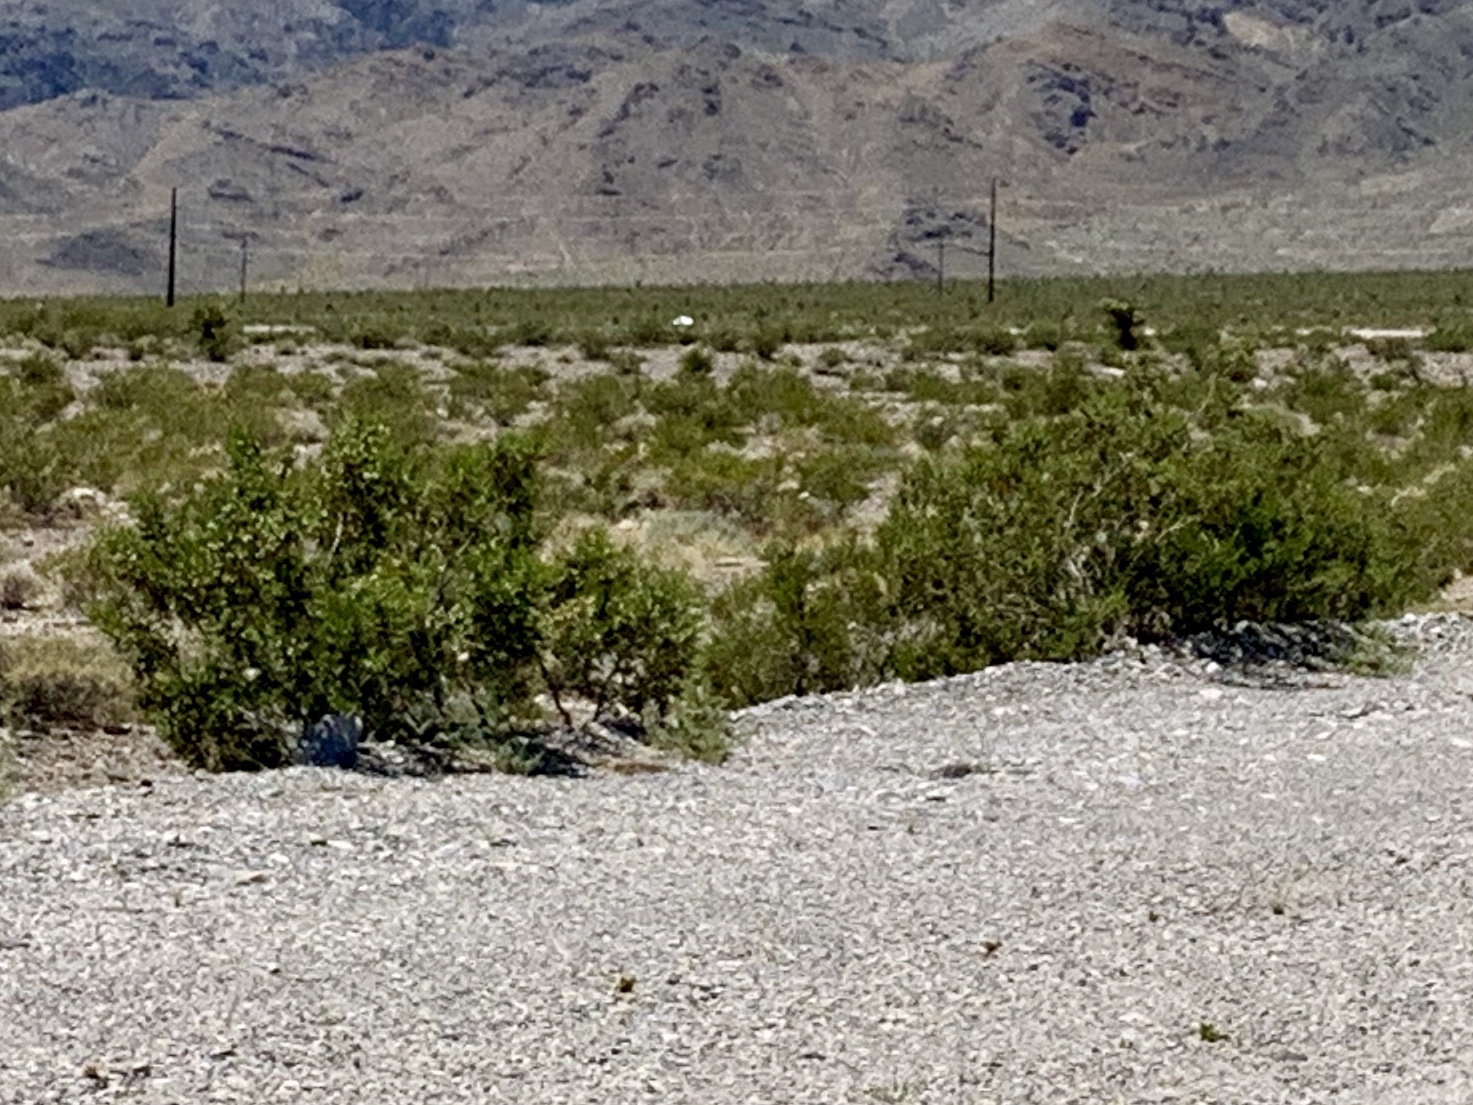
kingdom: Plantae
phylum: Tracheophyta
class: Magnoliopsida
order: Zygophyllales
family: Zygophyllaceae
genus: Larrea
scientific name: Larrea tridentata
